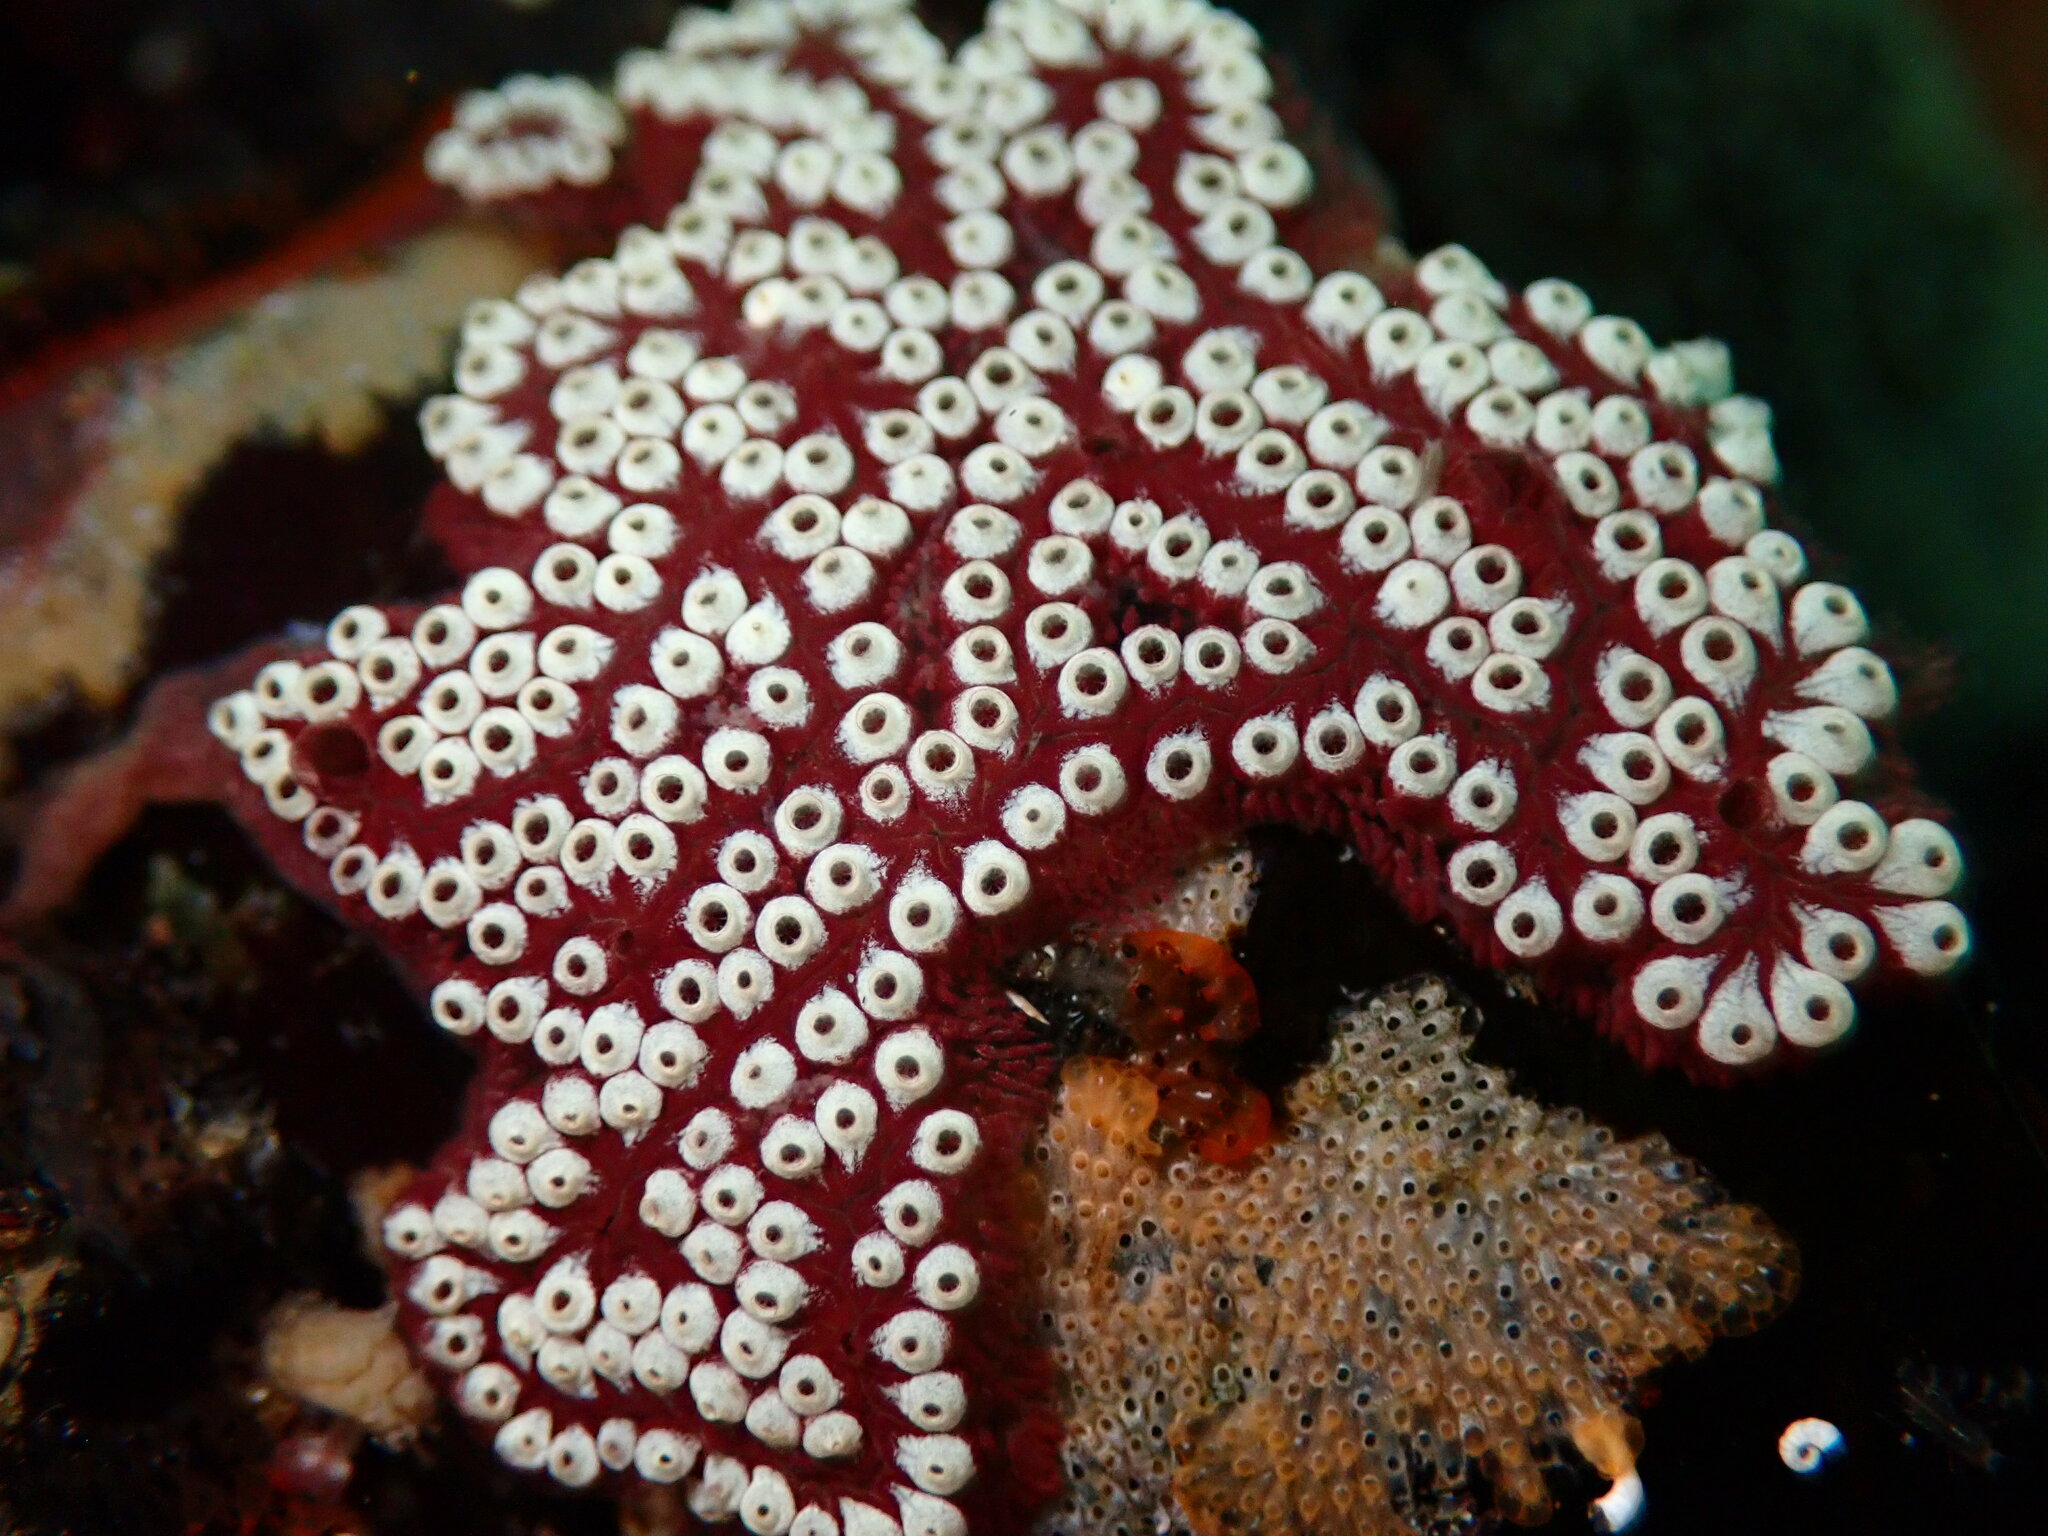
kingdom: Animalia
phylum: Chordata
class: Ascidiacea
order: Stolidobranchia
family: Styelidae
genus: Botrylloides
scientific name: Botrylloides diegensis
